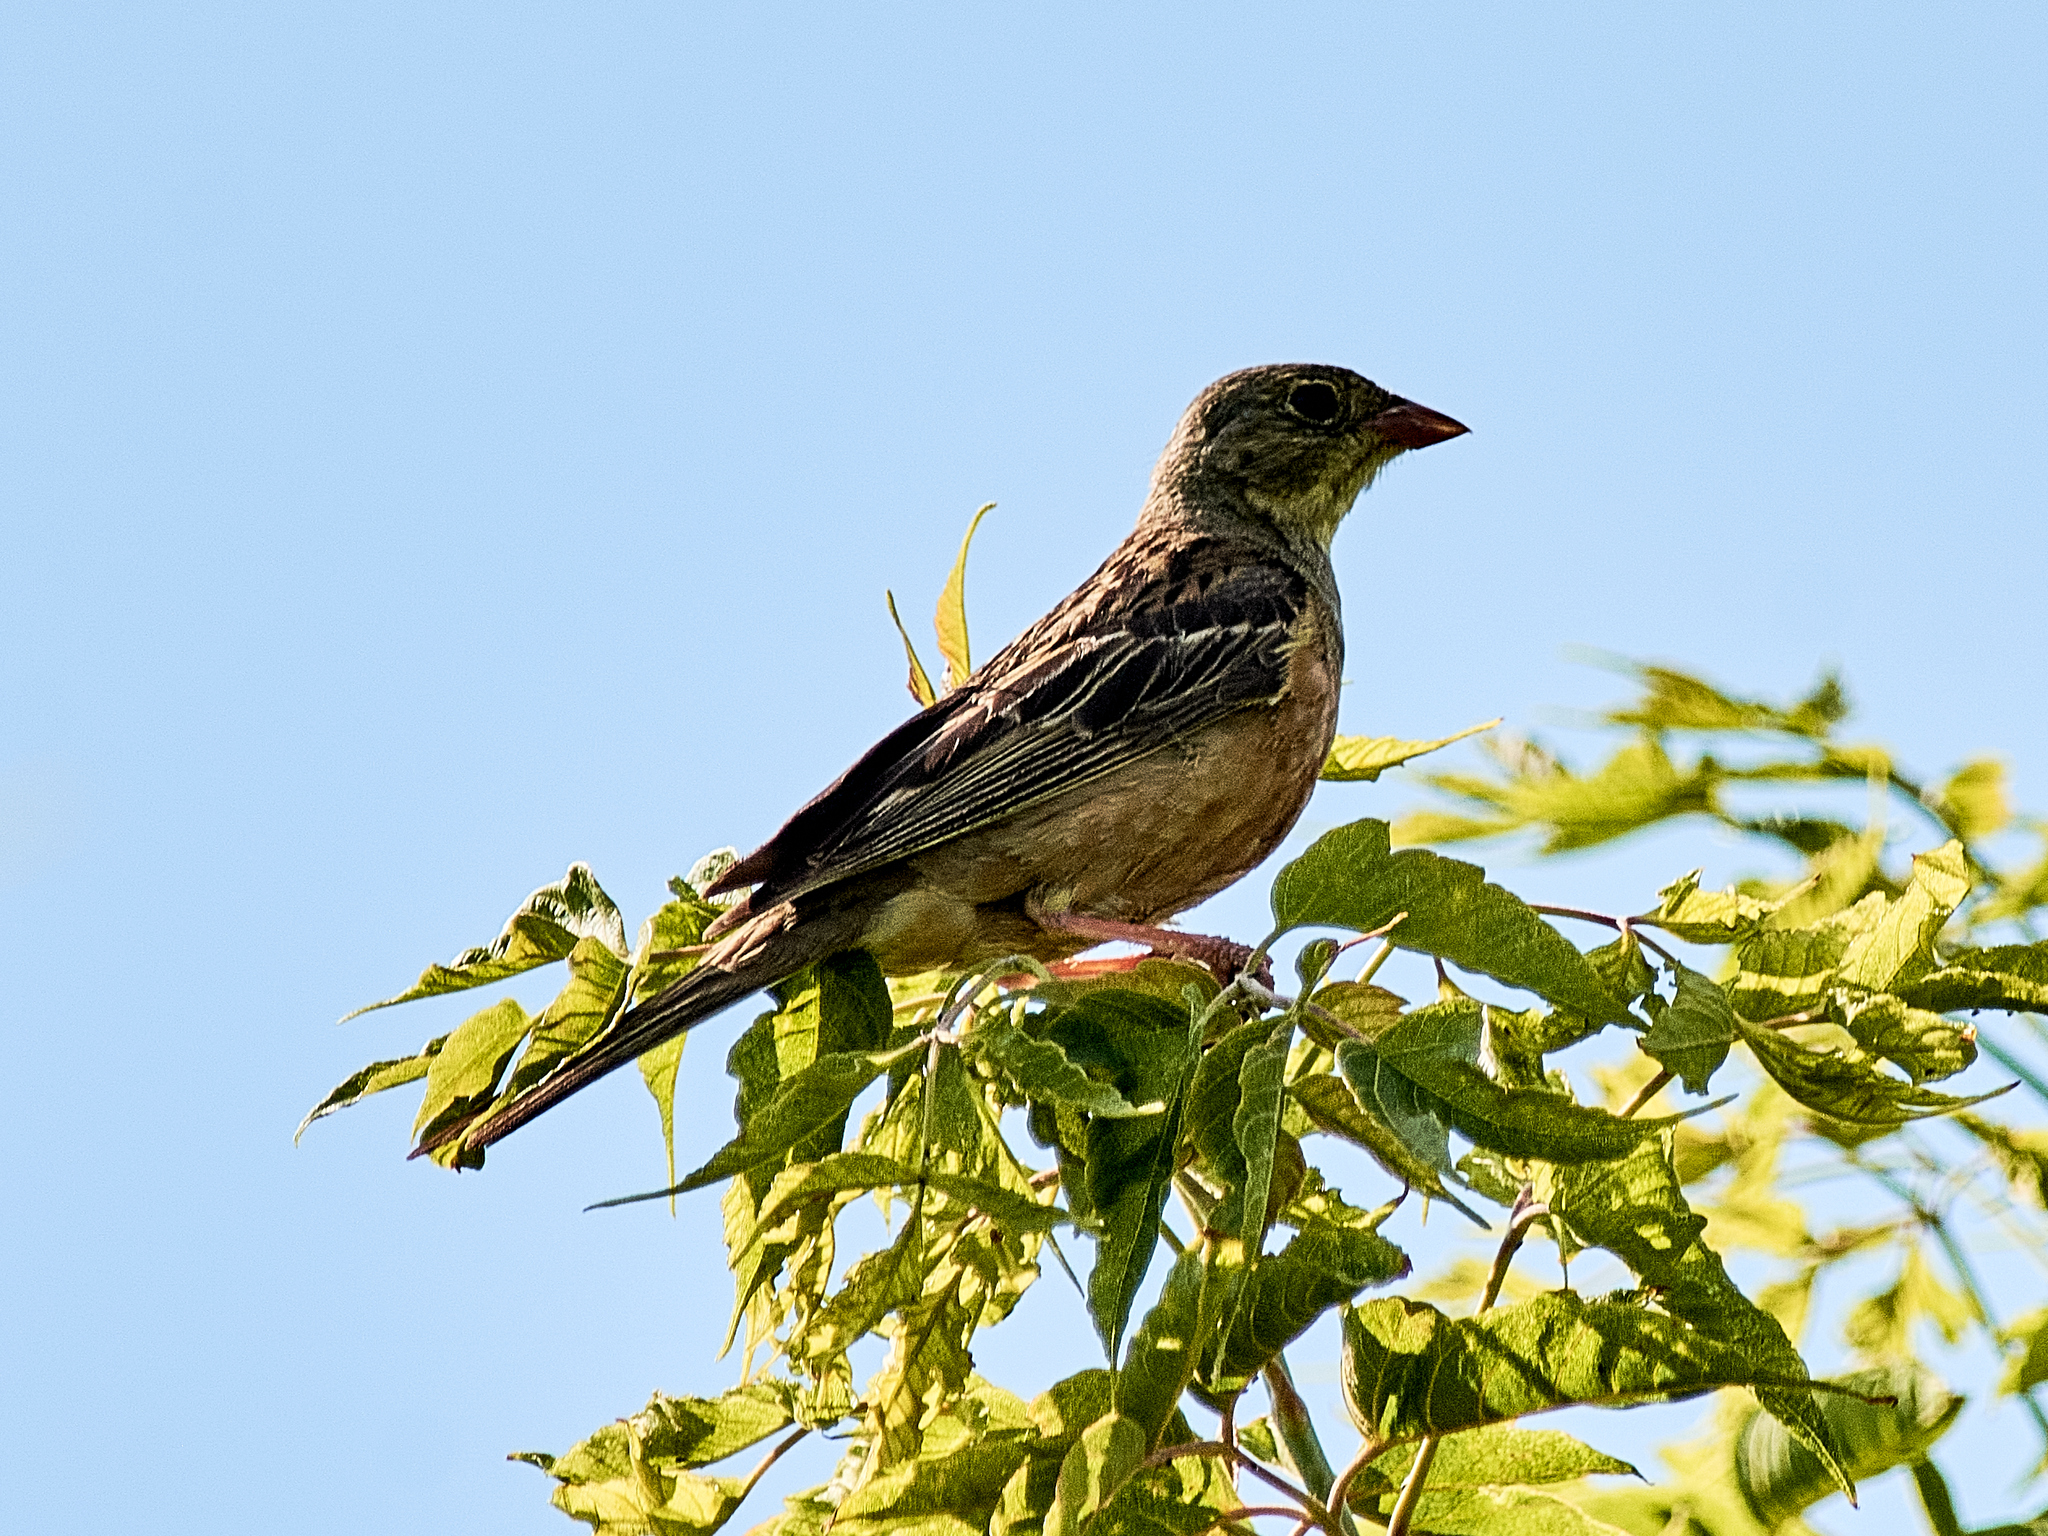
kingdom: Animalia
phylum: Chordata
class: Aves
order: Passeriformes
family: Emberizidae
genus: Emberiza
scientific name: Emberiza hortulana
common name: Ortolan bunting
